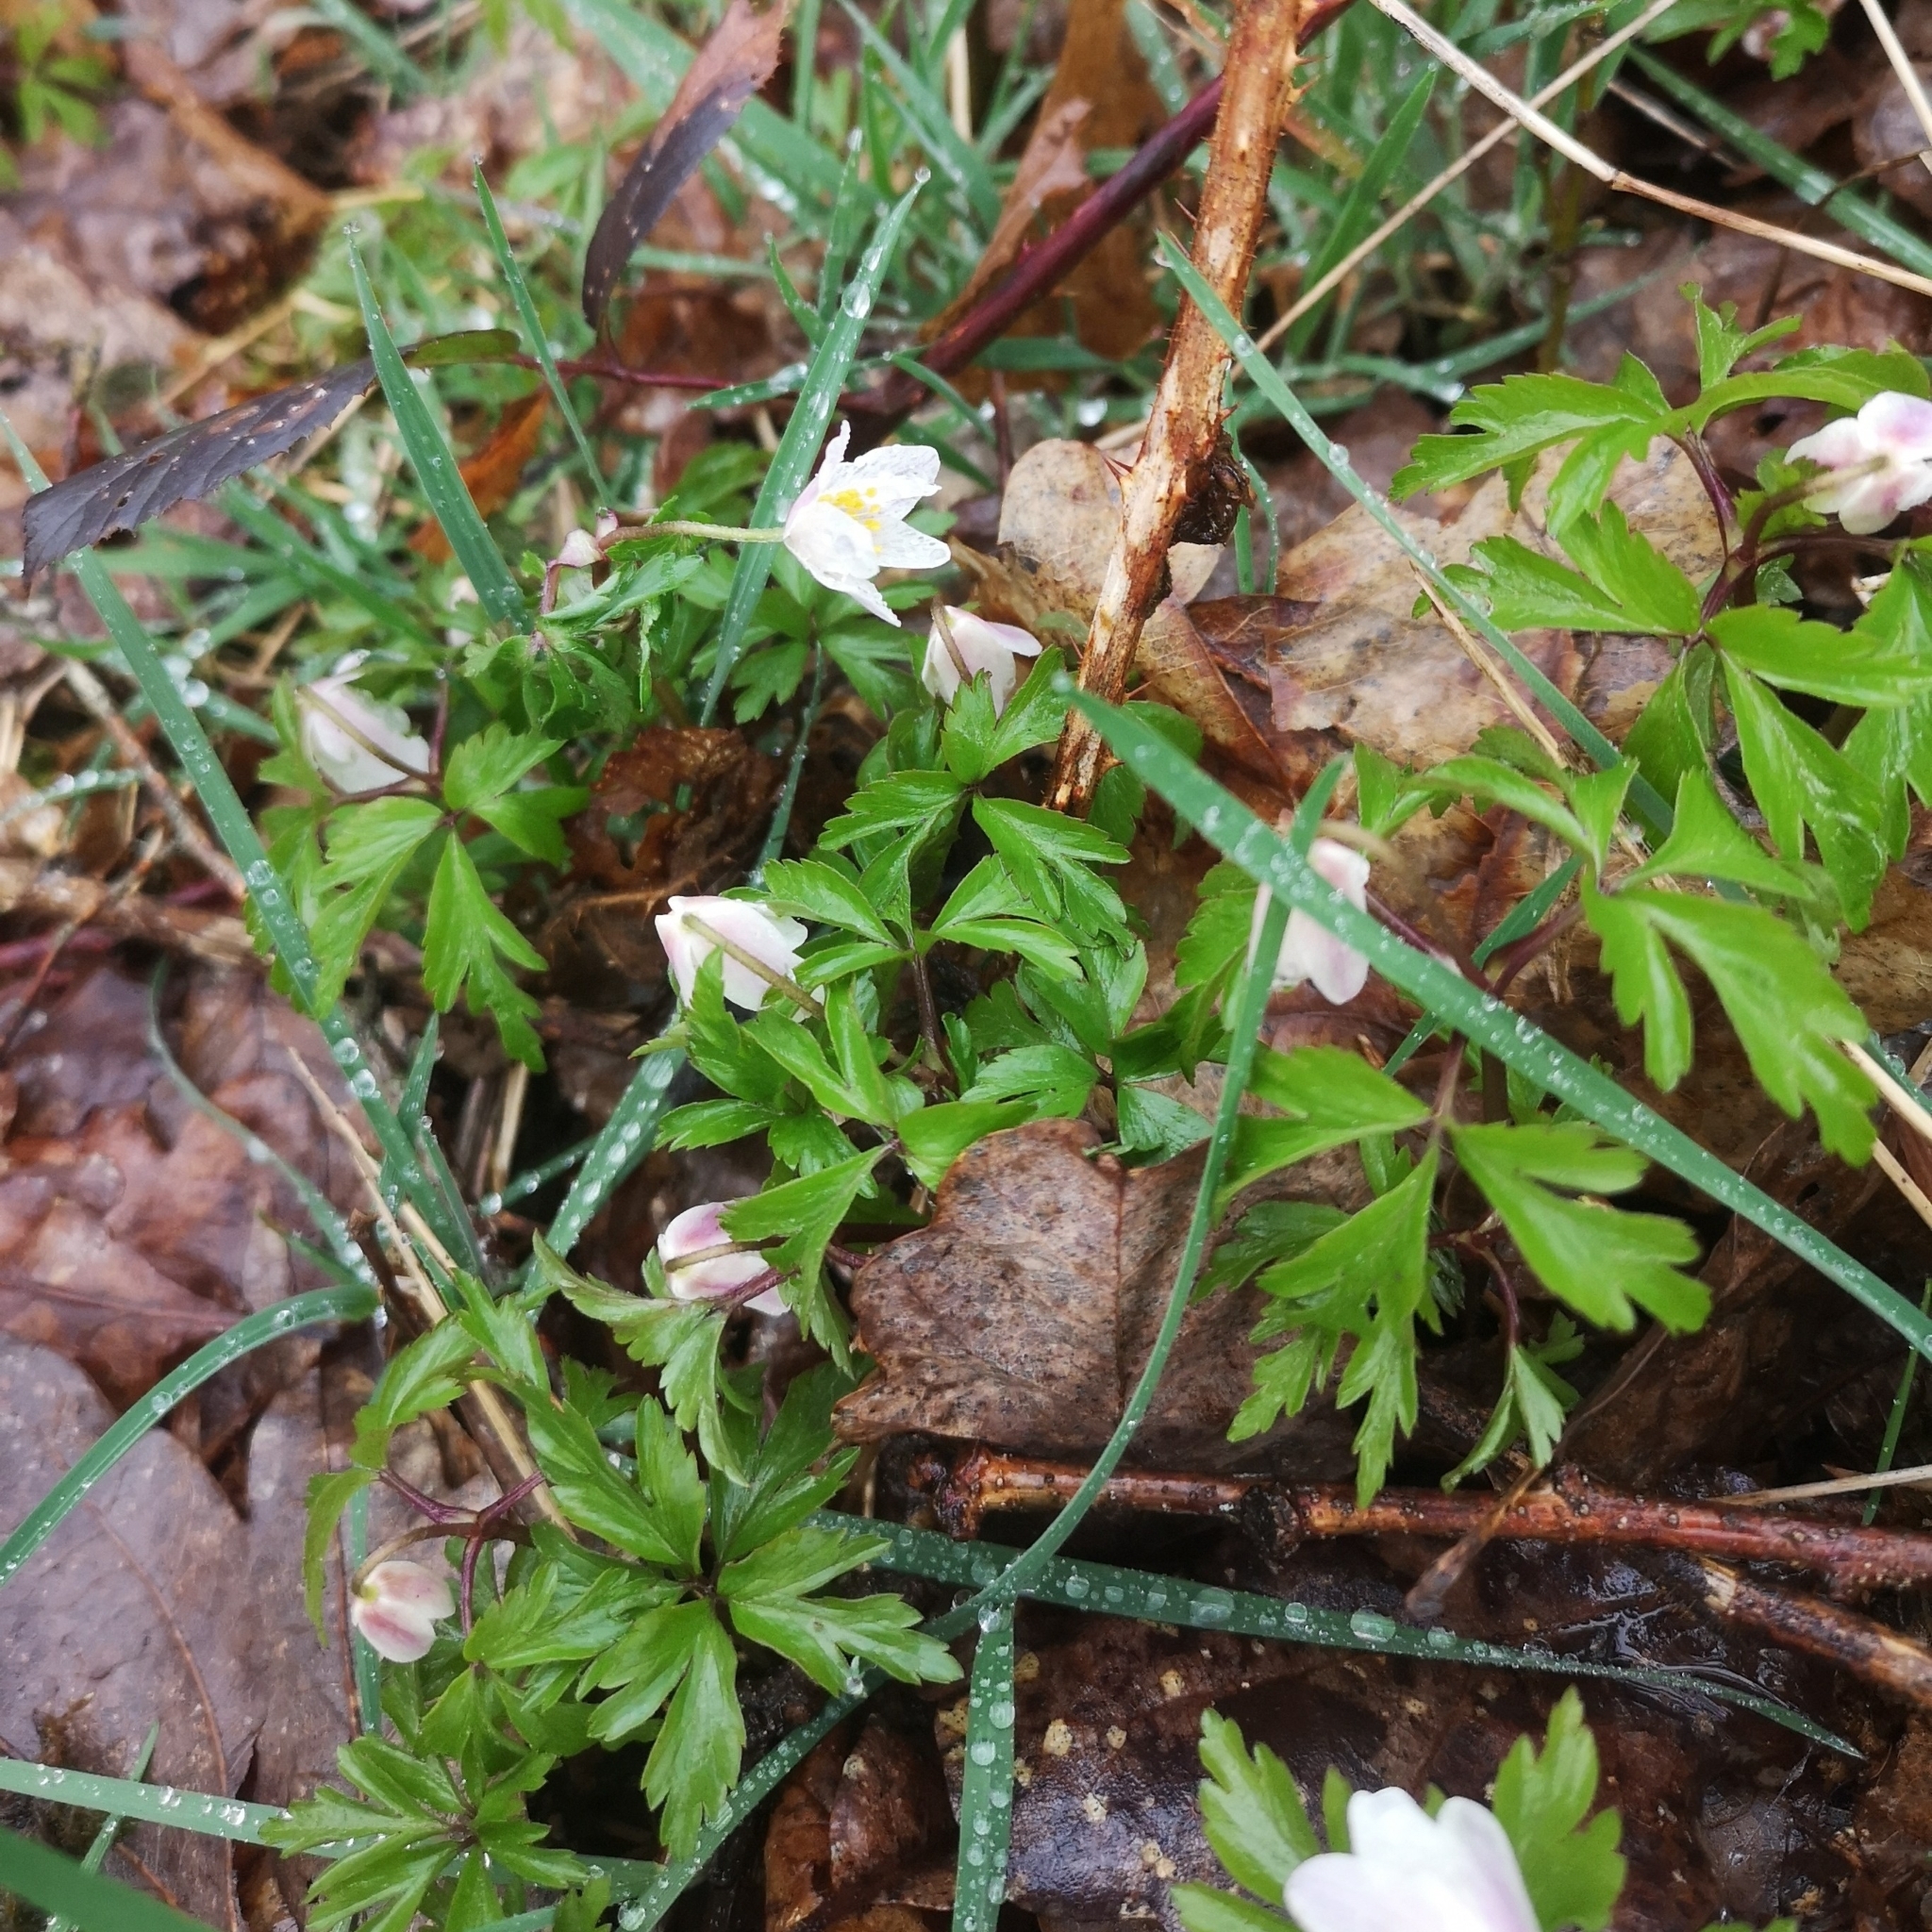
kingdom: Plantae
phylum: Tracheophyta
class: Magnoliopsida
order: Ranunculales
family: Ranunculaceae
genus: Anemone
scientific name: Anemone nemorosa
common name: Wood anemone
